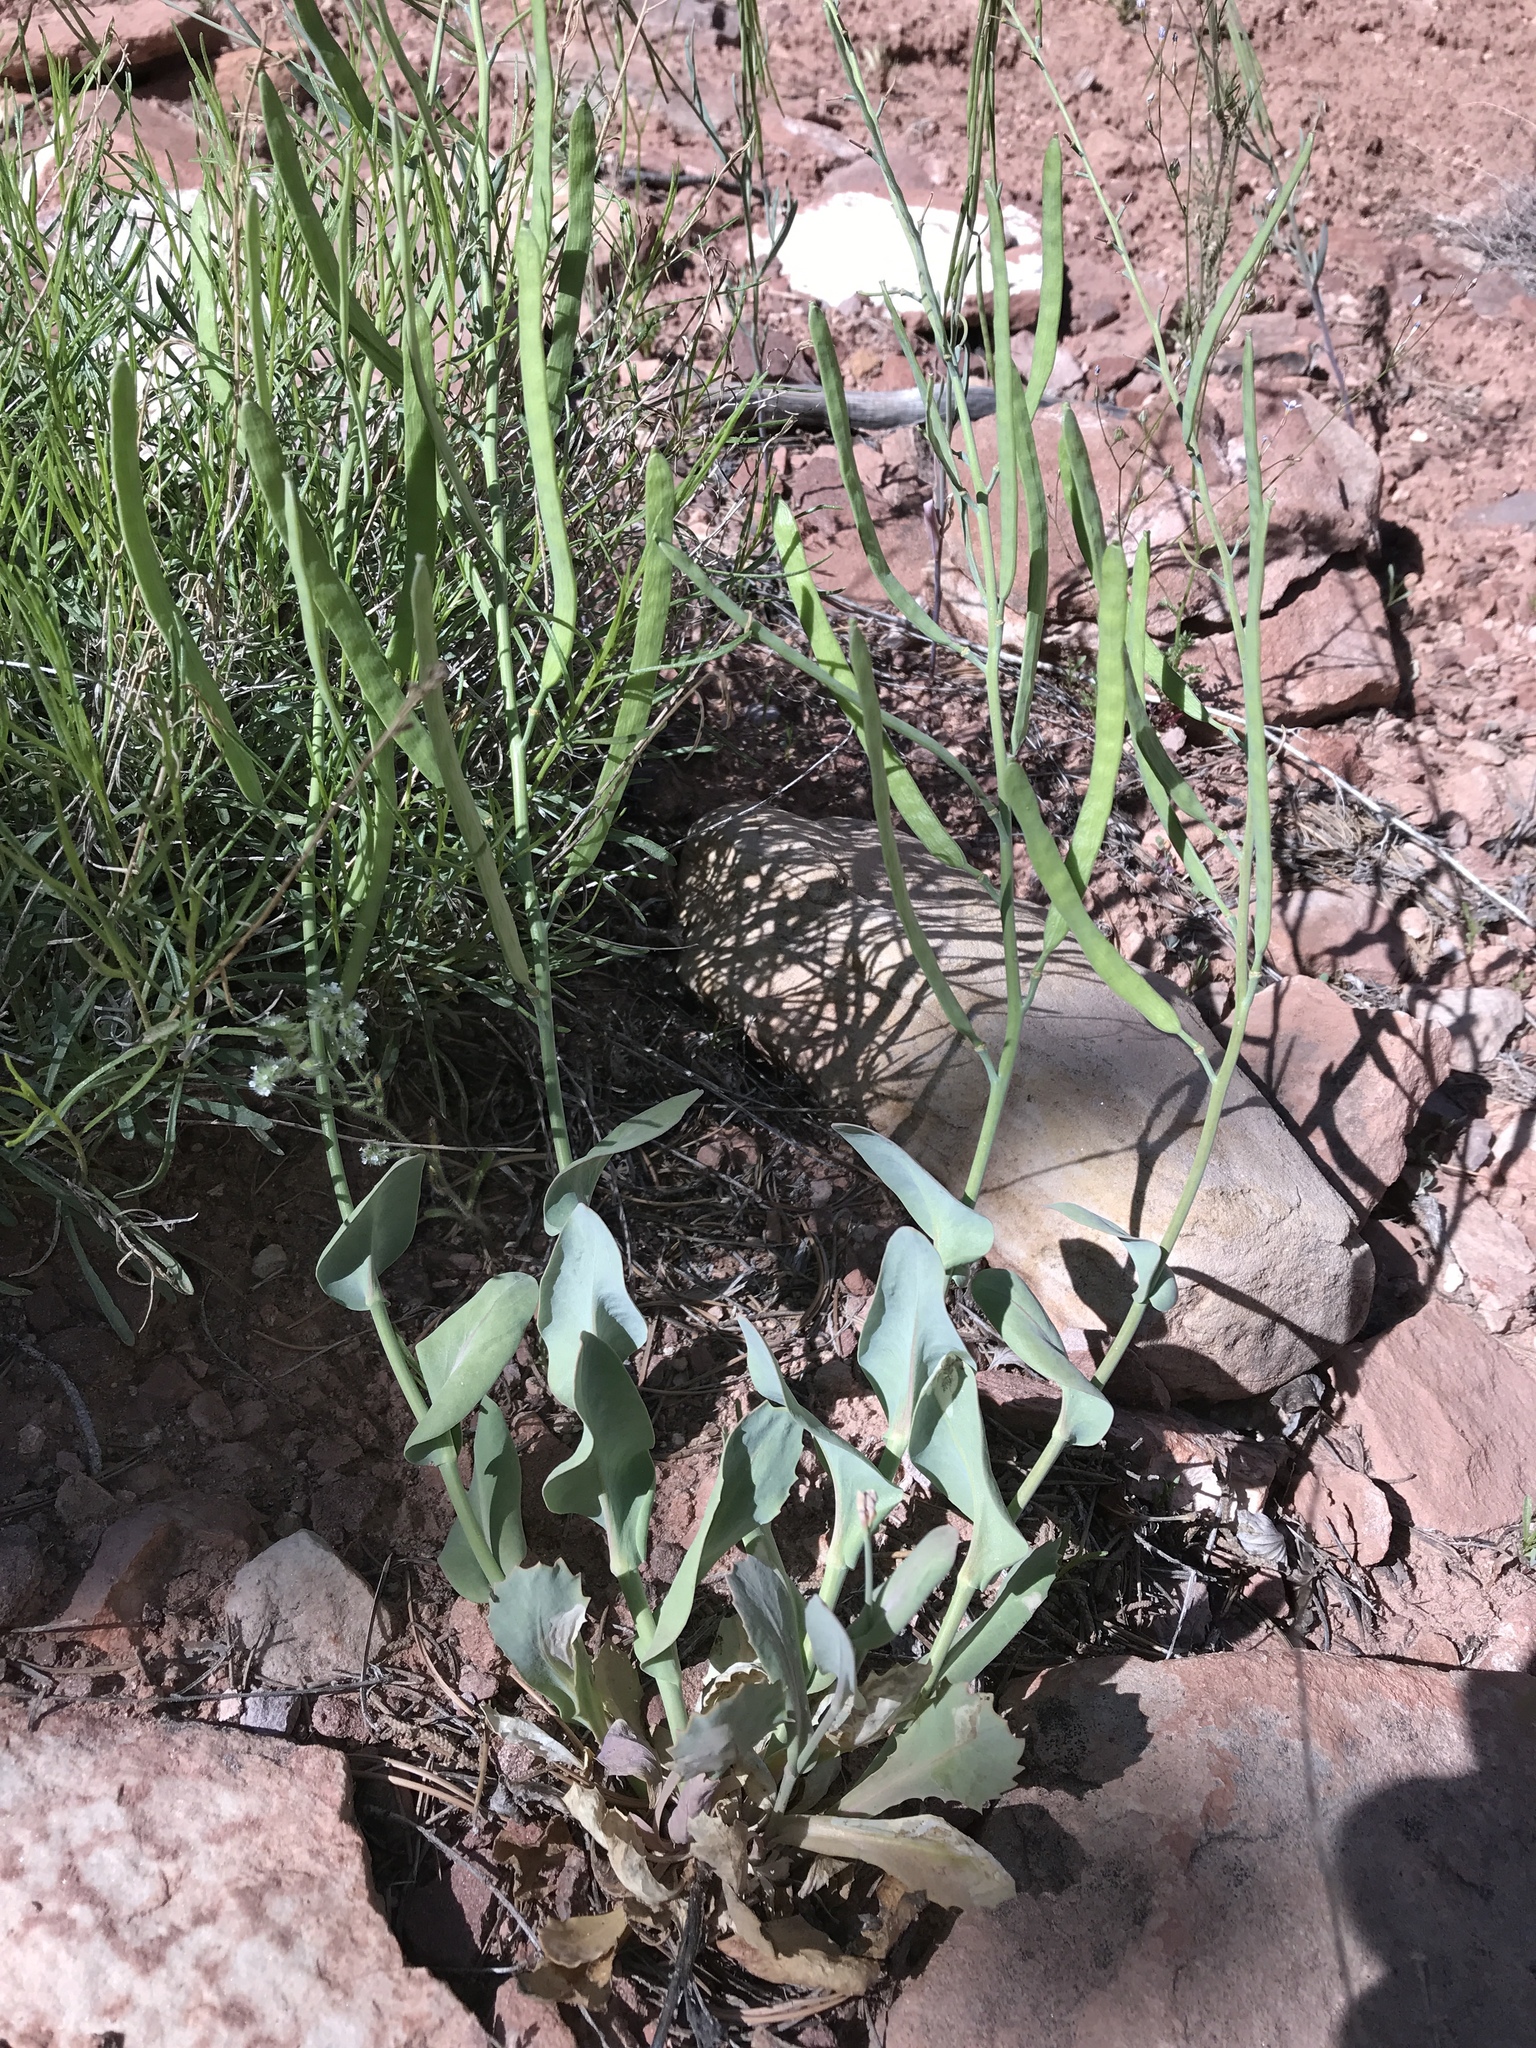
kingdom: Plantae
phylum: Tracheophyta
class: Magnoliopsida
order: Brassicales
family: Brassicaceae
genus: Streptanthus
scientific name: Streptanthus cordatus
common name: Heart-leaf jewel-flower
